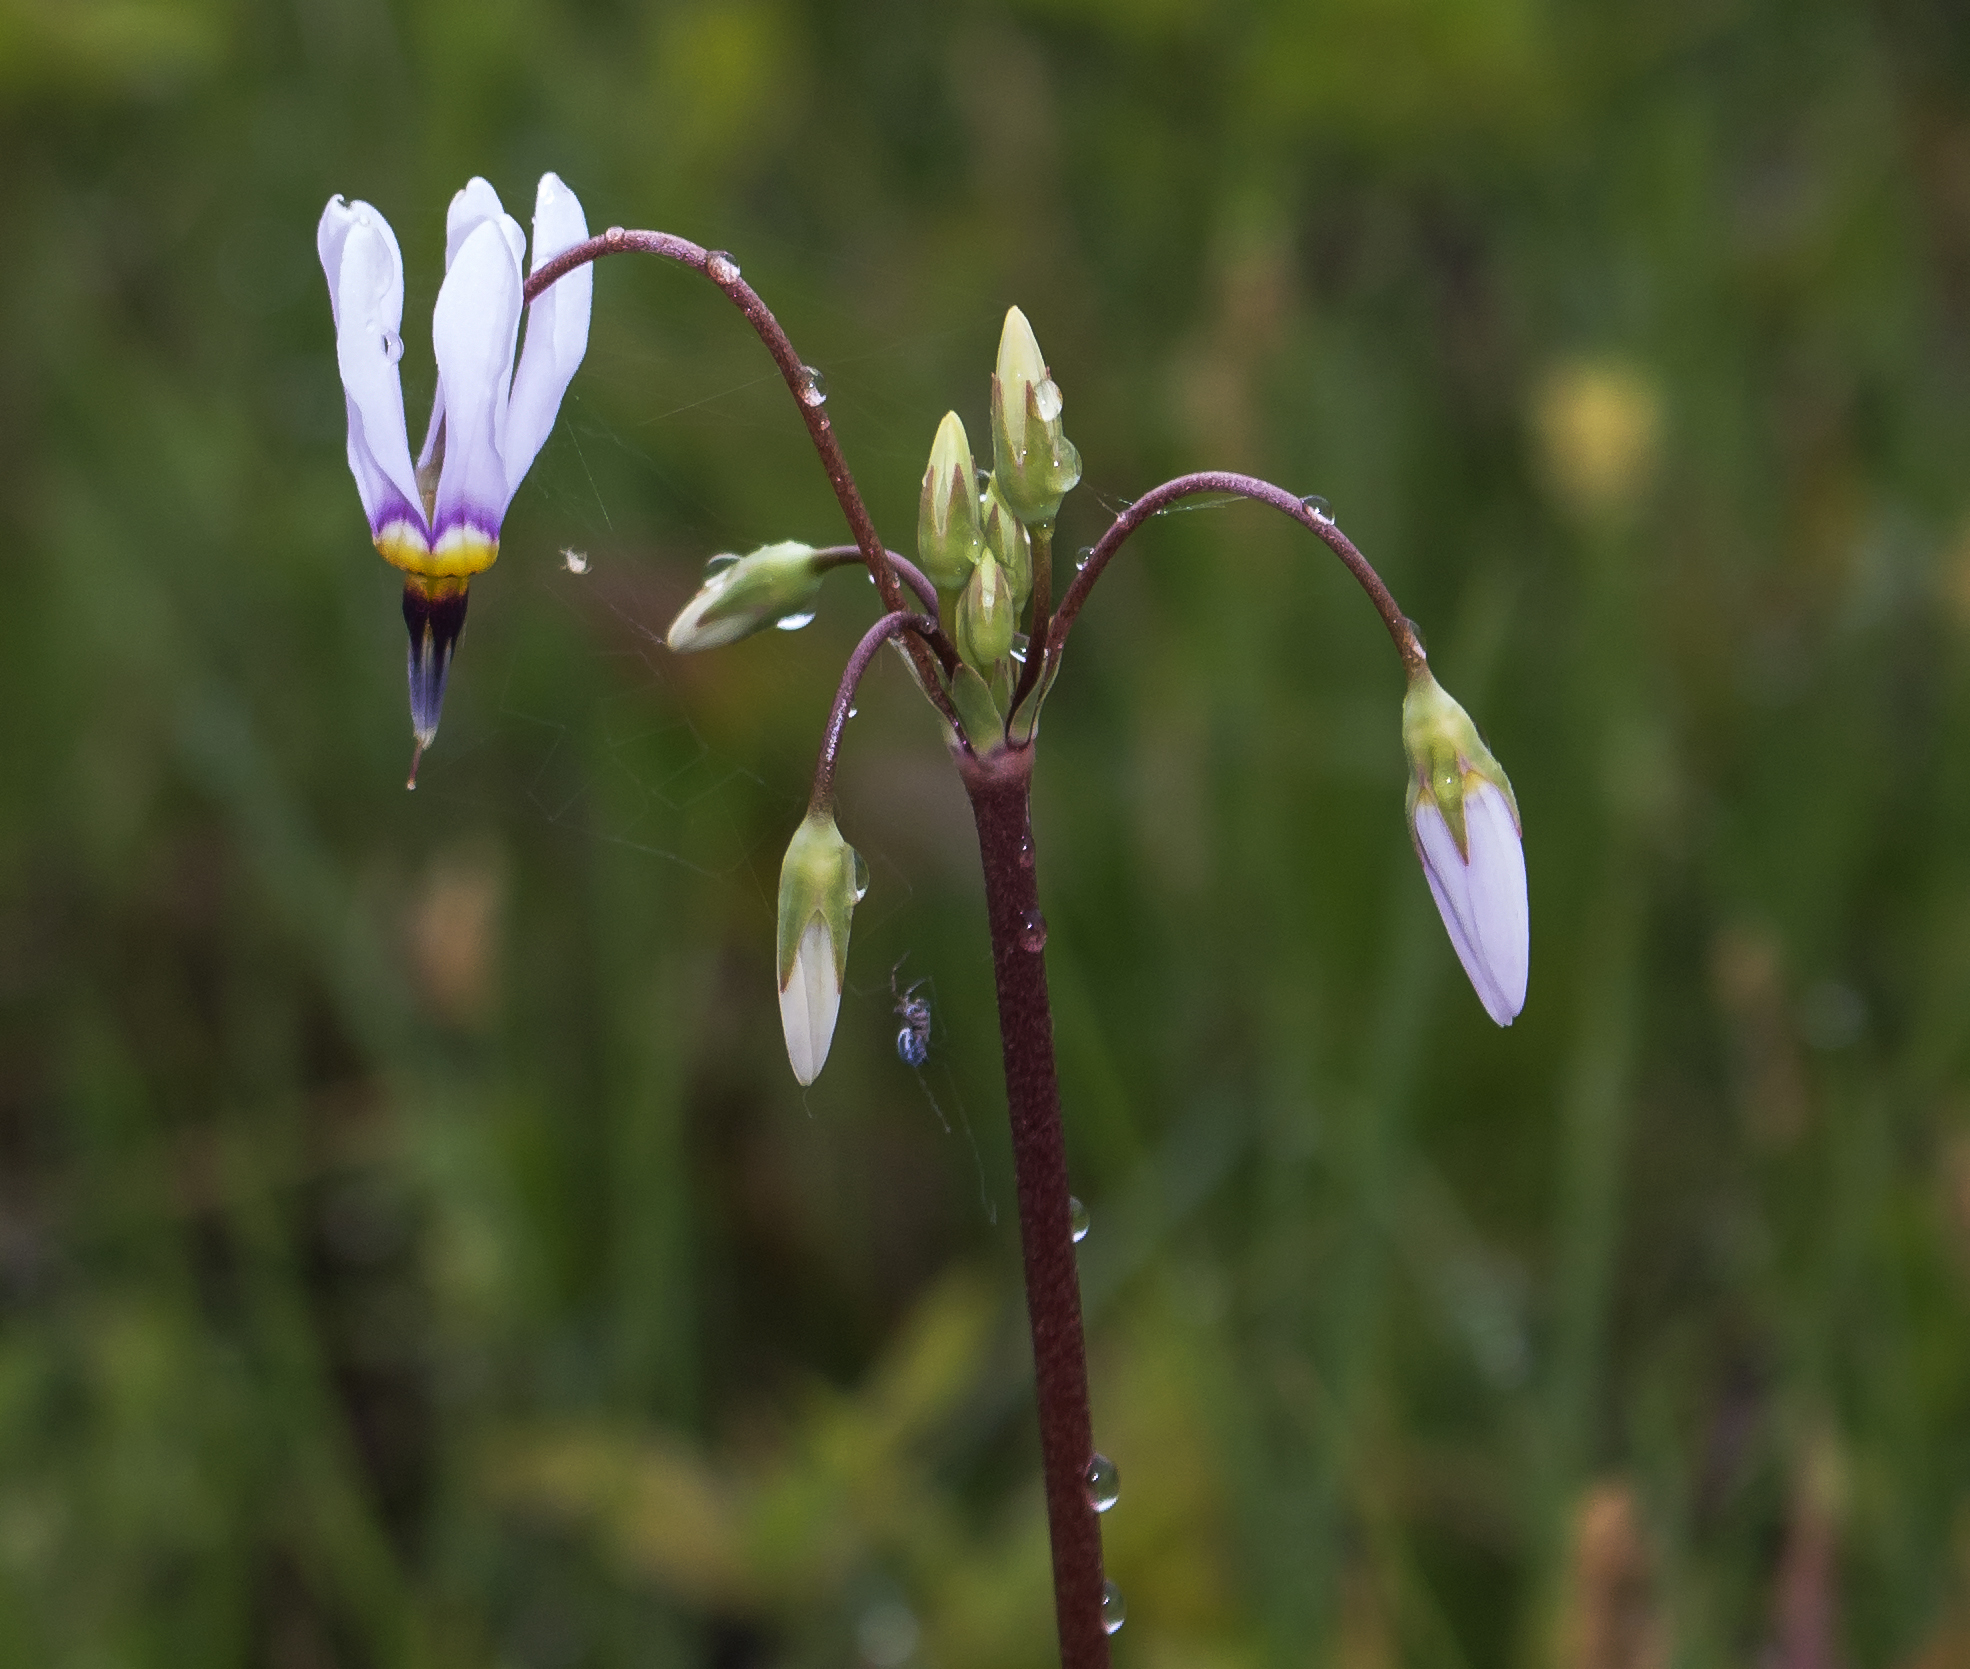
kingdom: Plantae
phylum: Tracheophyta
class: Magnoliopsida
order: Ericales
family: Primulaceae
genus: Dodecatheon
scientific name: Dodecatheon meadia
